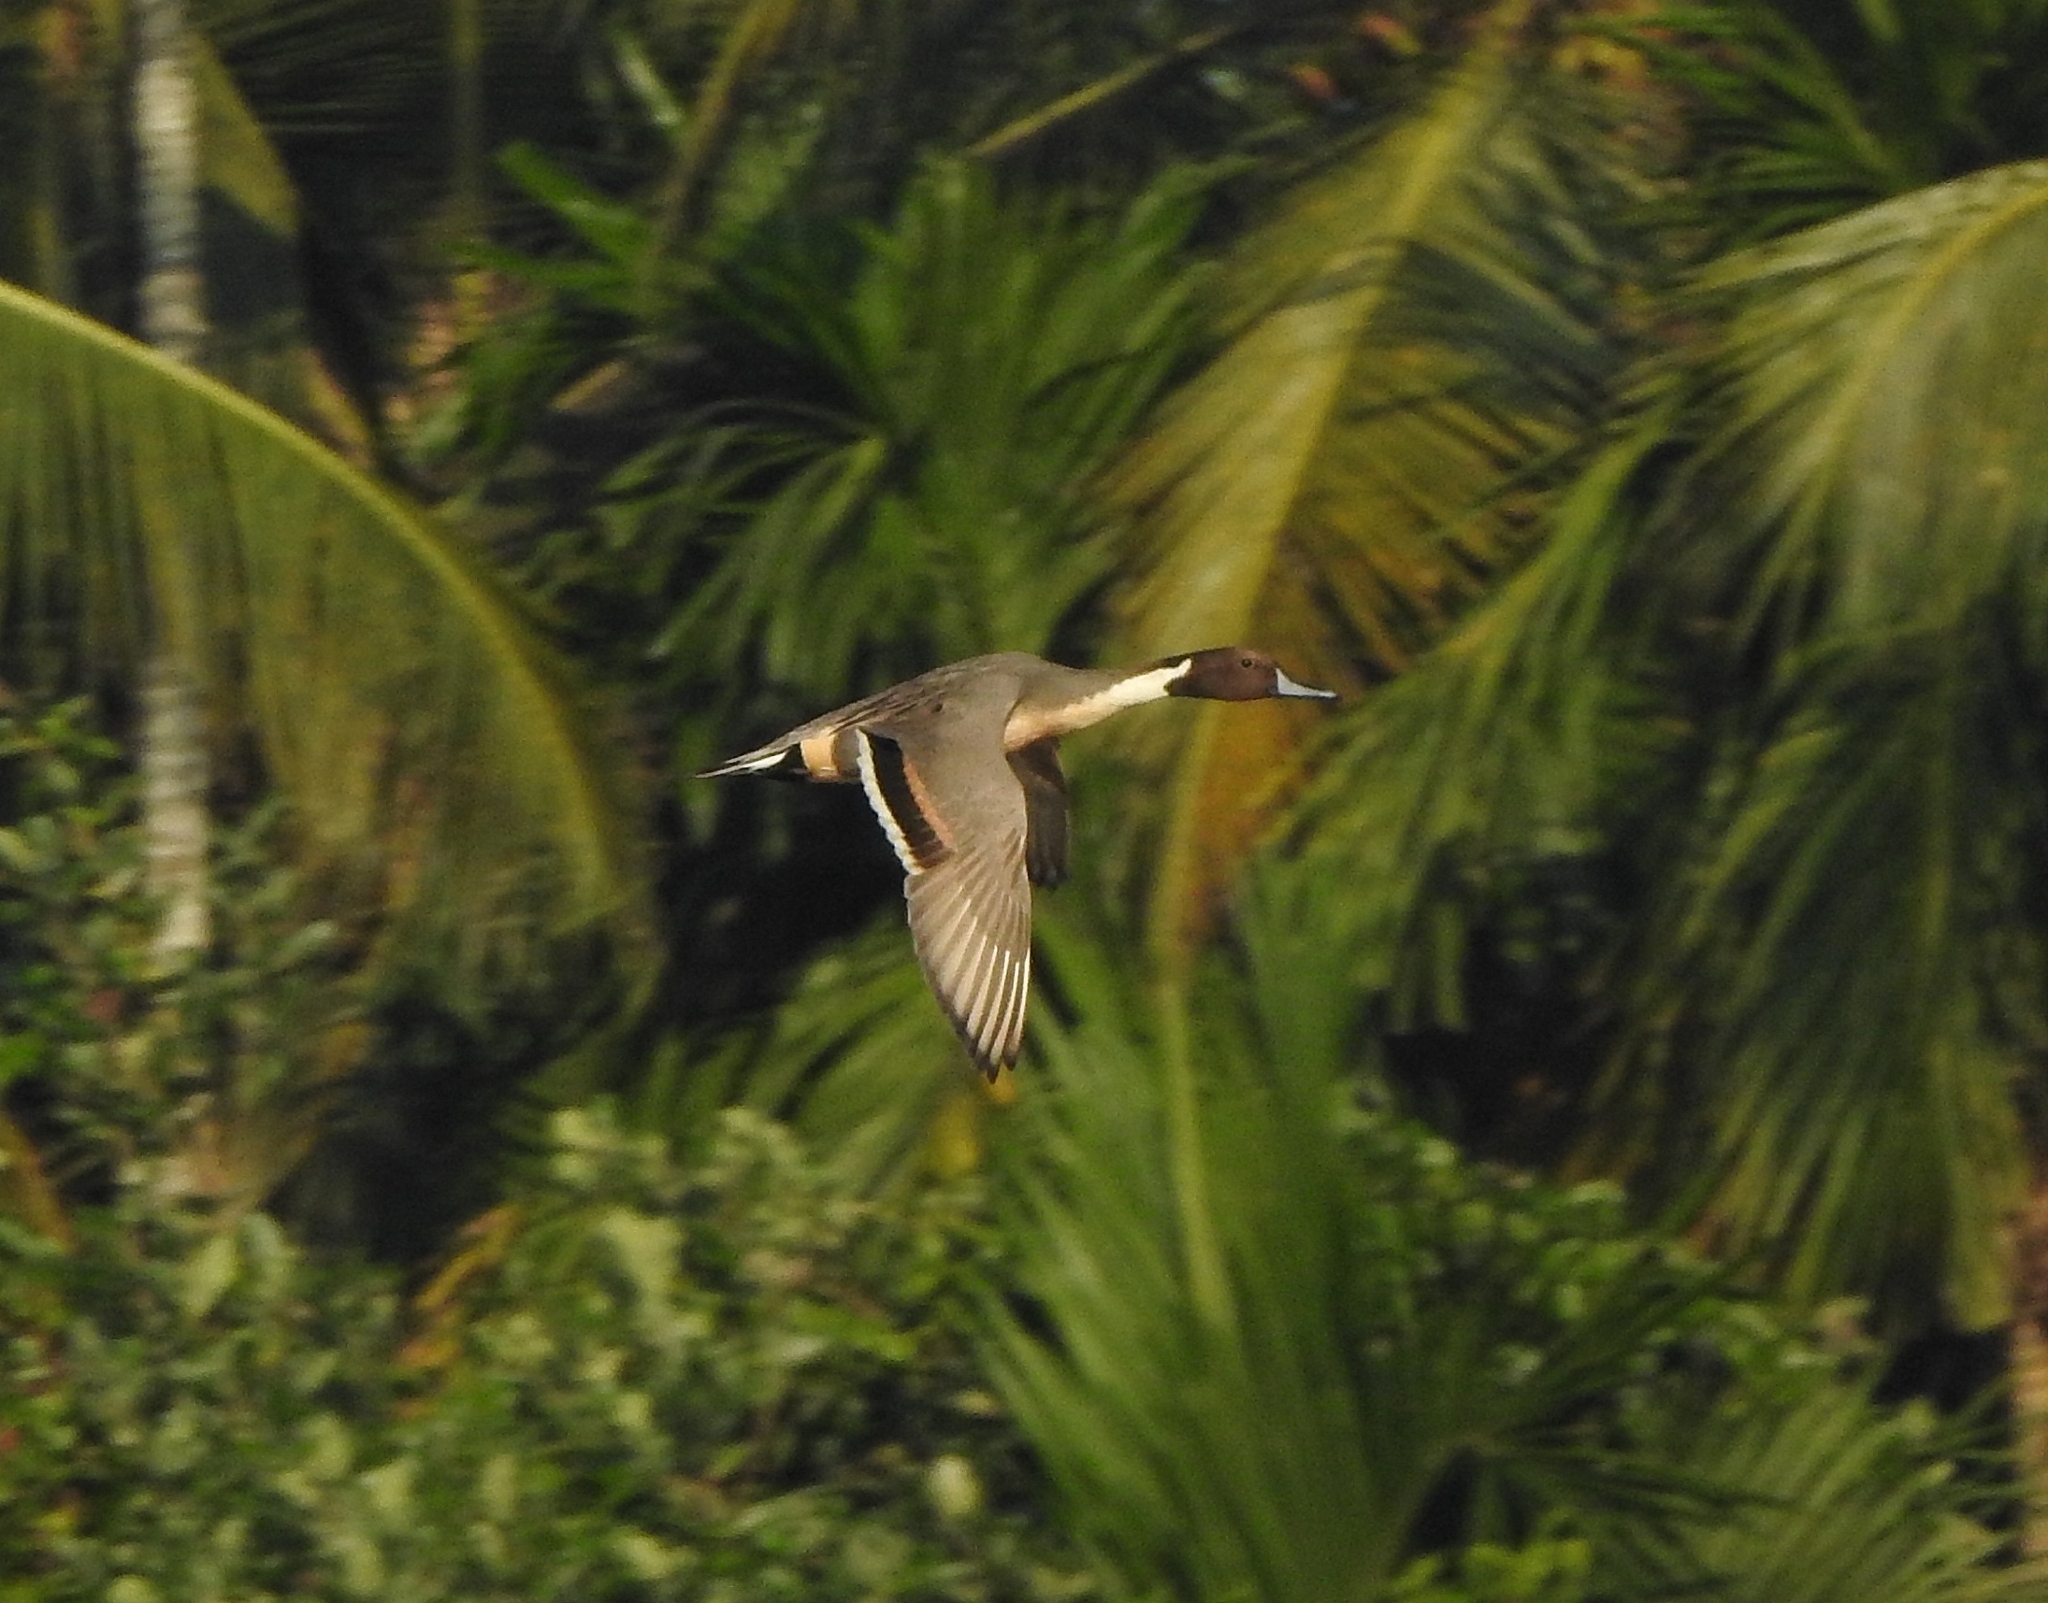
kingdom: Animalia
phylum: Chordata
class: Aves
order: Anseriformes
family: Anatidae
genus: Anas
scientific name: Anas acuta
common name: Northern pintail
